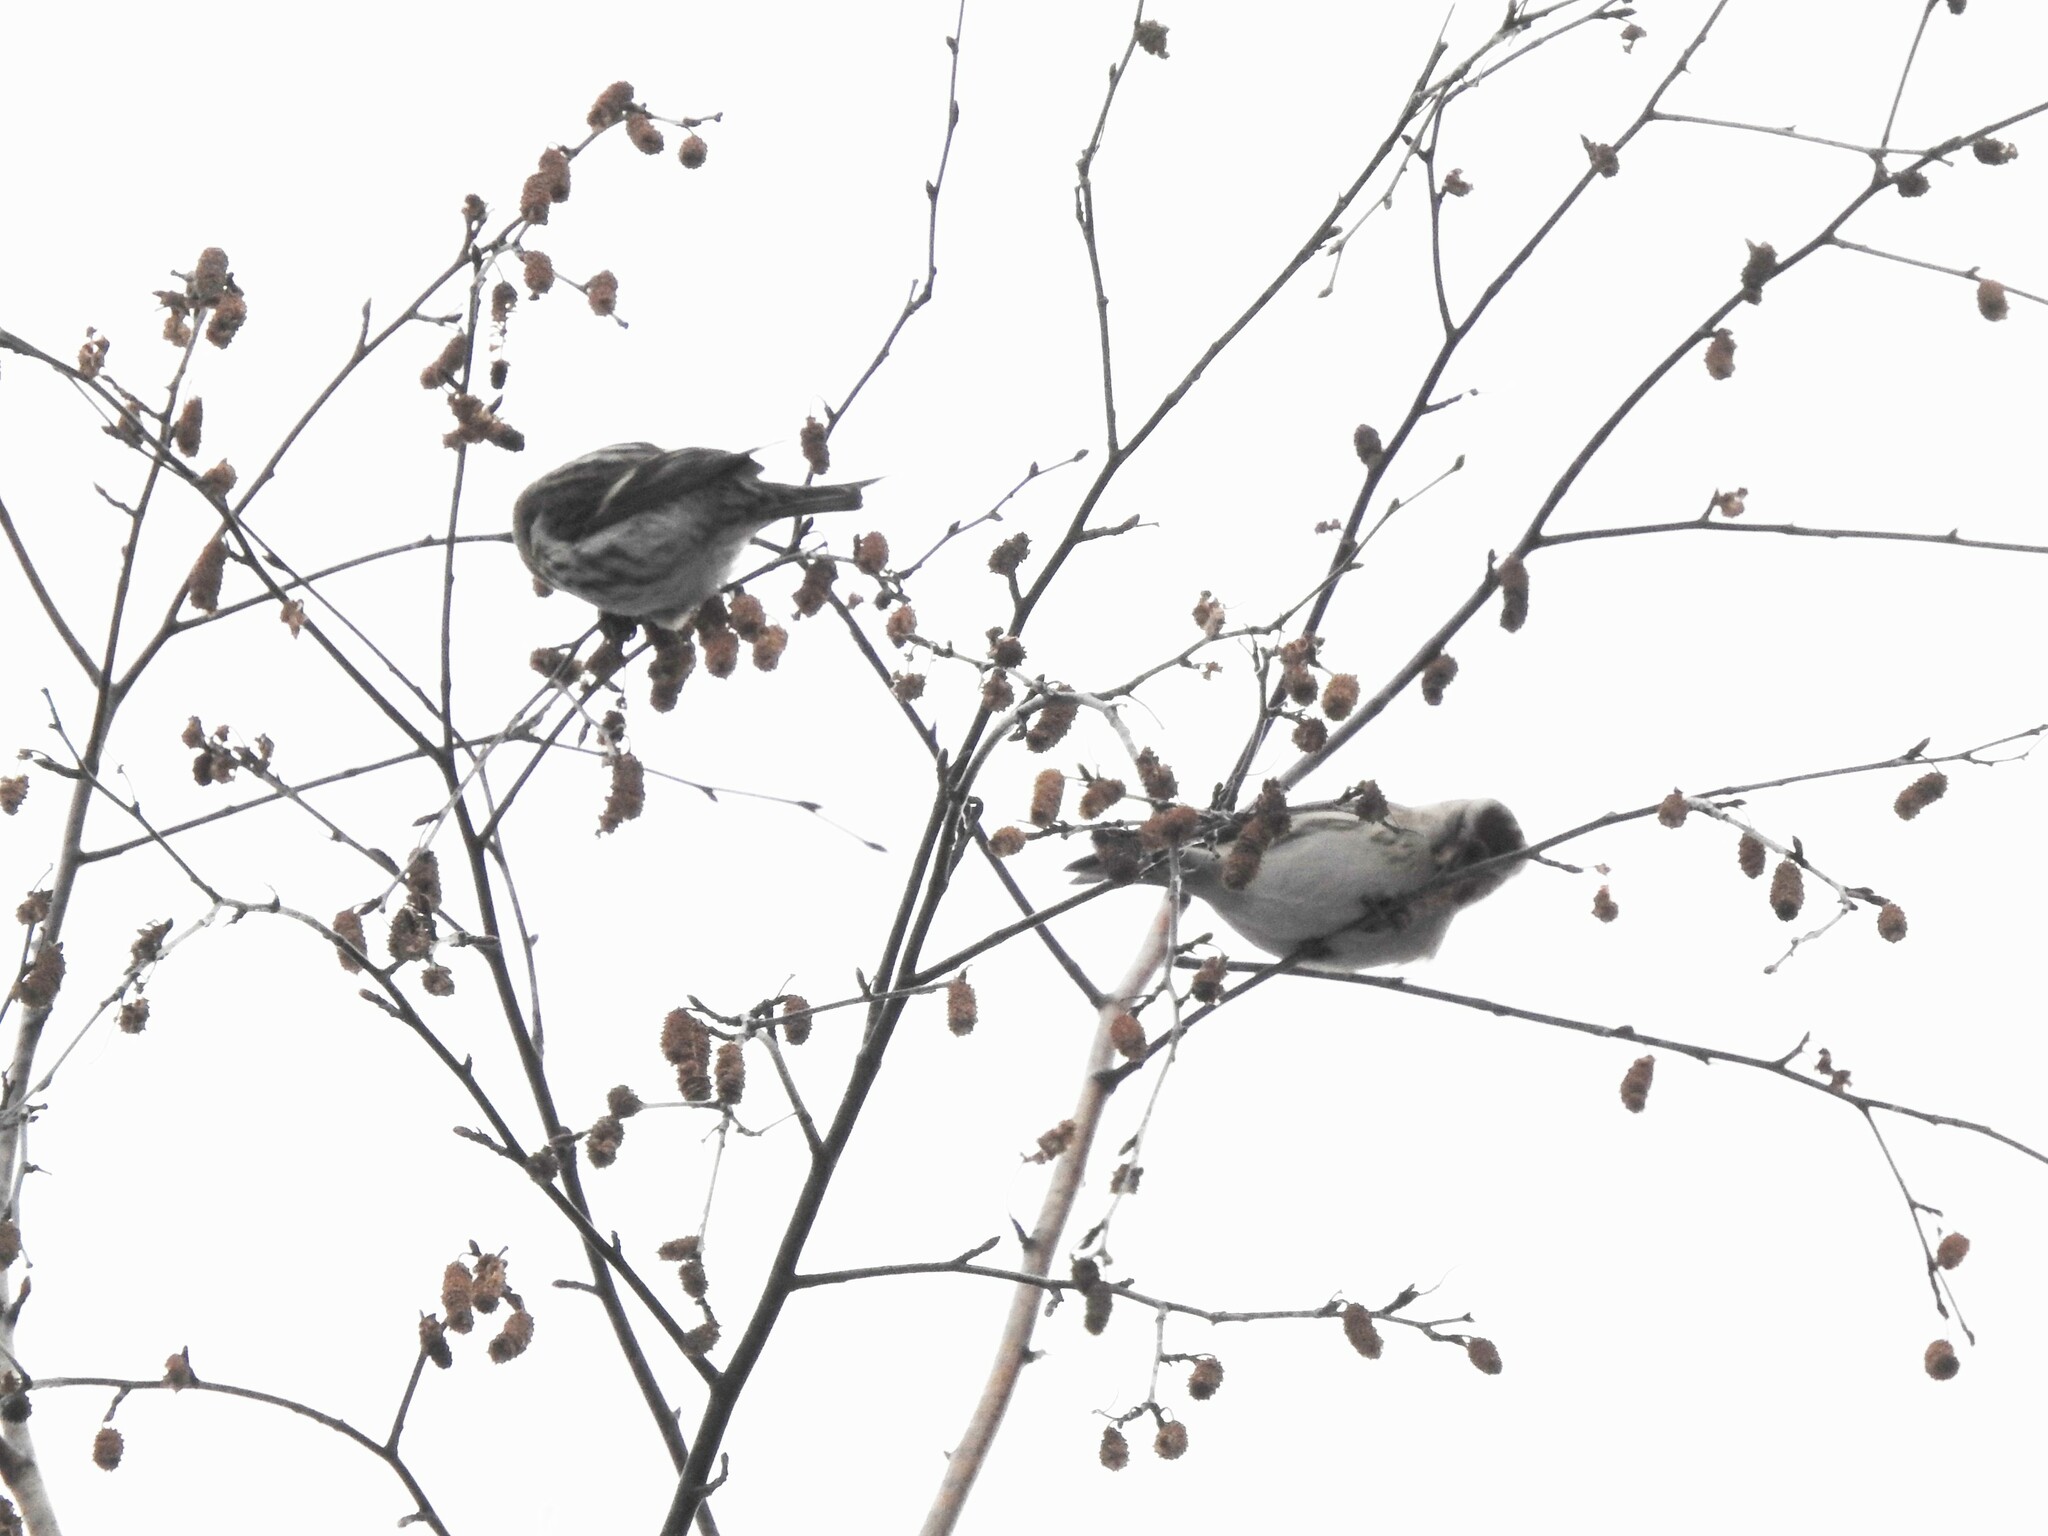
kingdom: Animalia
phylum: Chordata
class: Aves
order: Passeriformes
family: Fringillidae
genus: Acanthis
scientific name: Acanthis flammea
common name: Common redpoll
